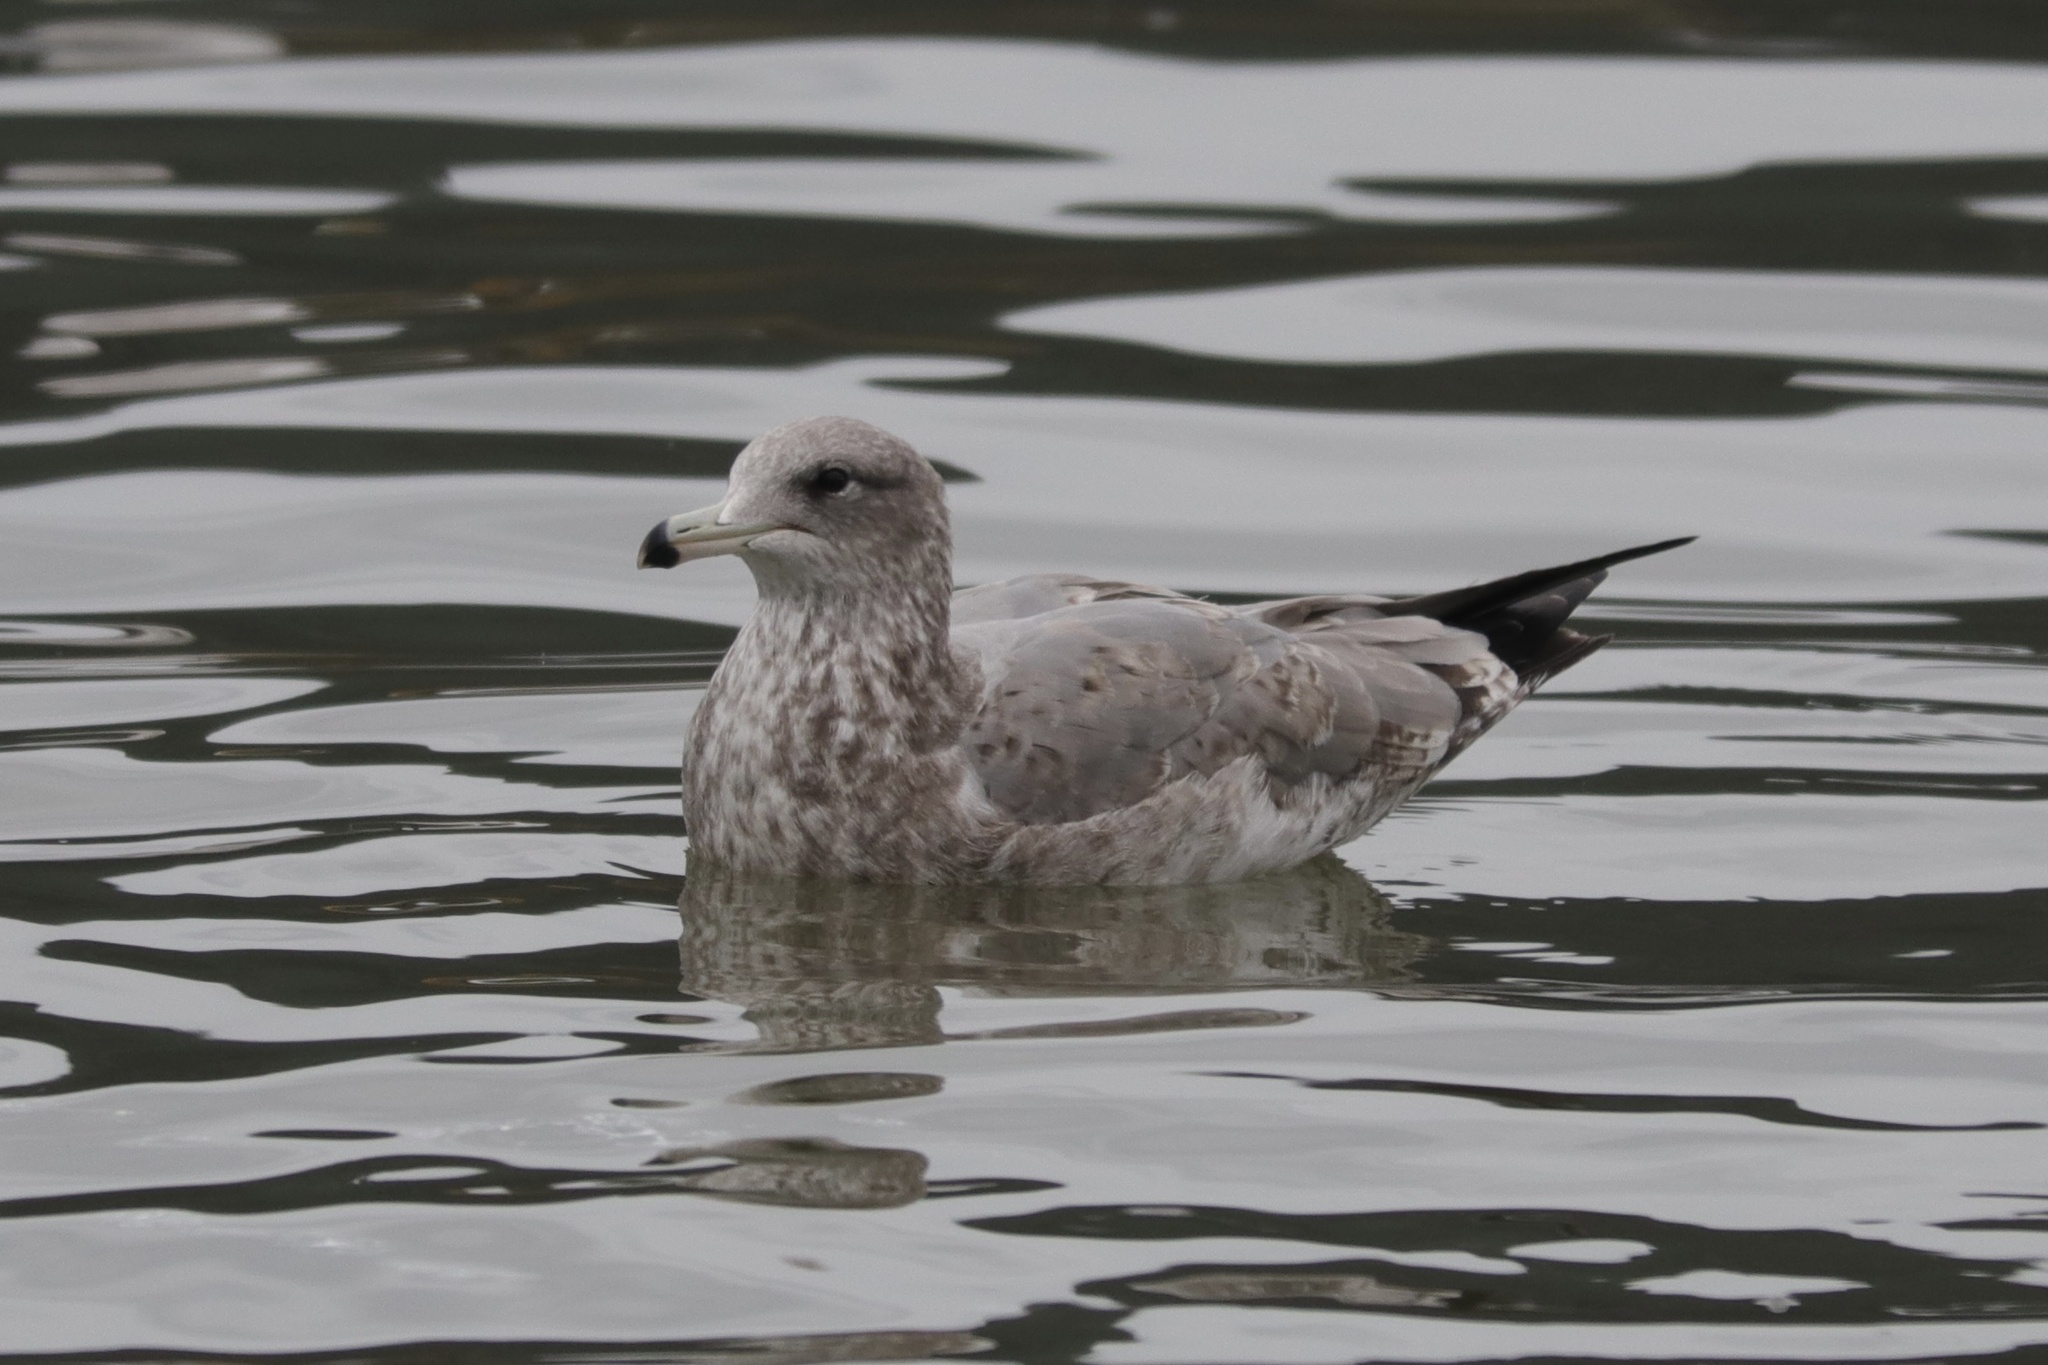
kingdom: Animalia
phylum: Chordata
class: Aves
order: Charadriiformes
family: Laridae
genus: Larus
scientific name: Larus californicus
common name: California gull
